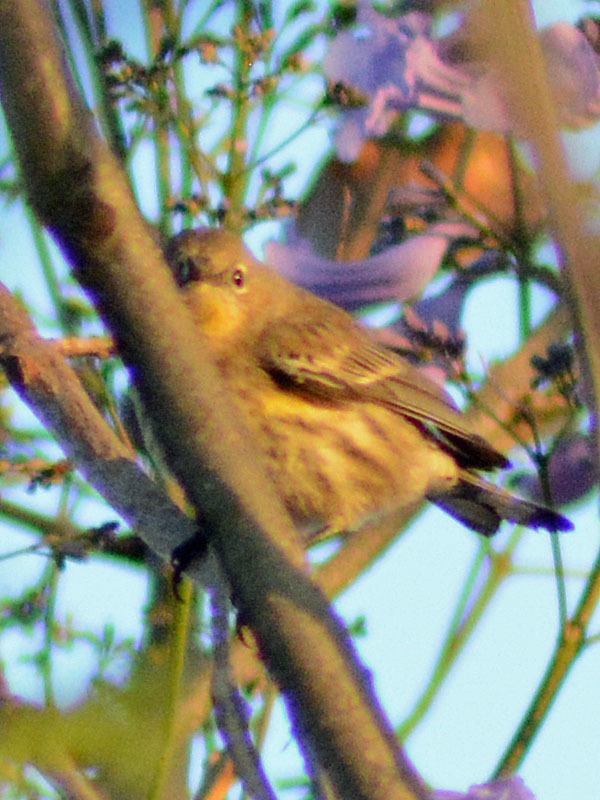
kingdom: Animalia
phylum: Chordata
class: Aves
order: Passeriformes
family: Parulidae
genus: Setophaga
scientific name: Setophaga coronata
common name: Myrtle warbler
